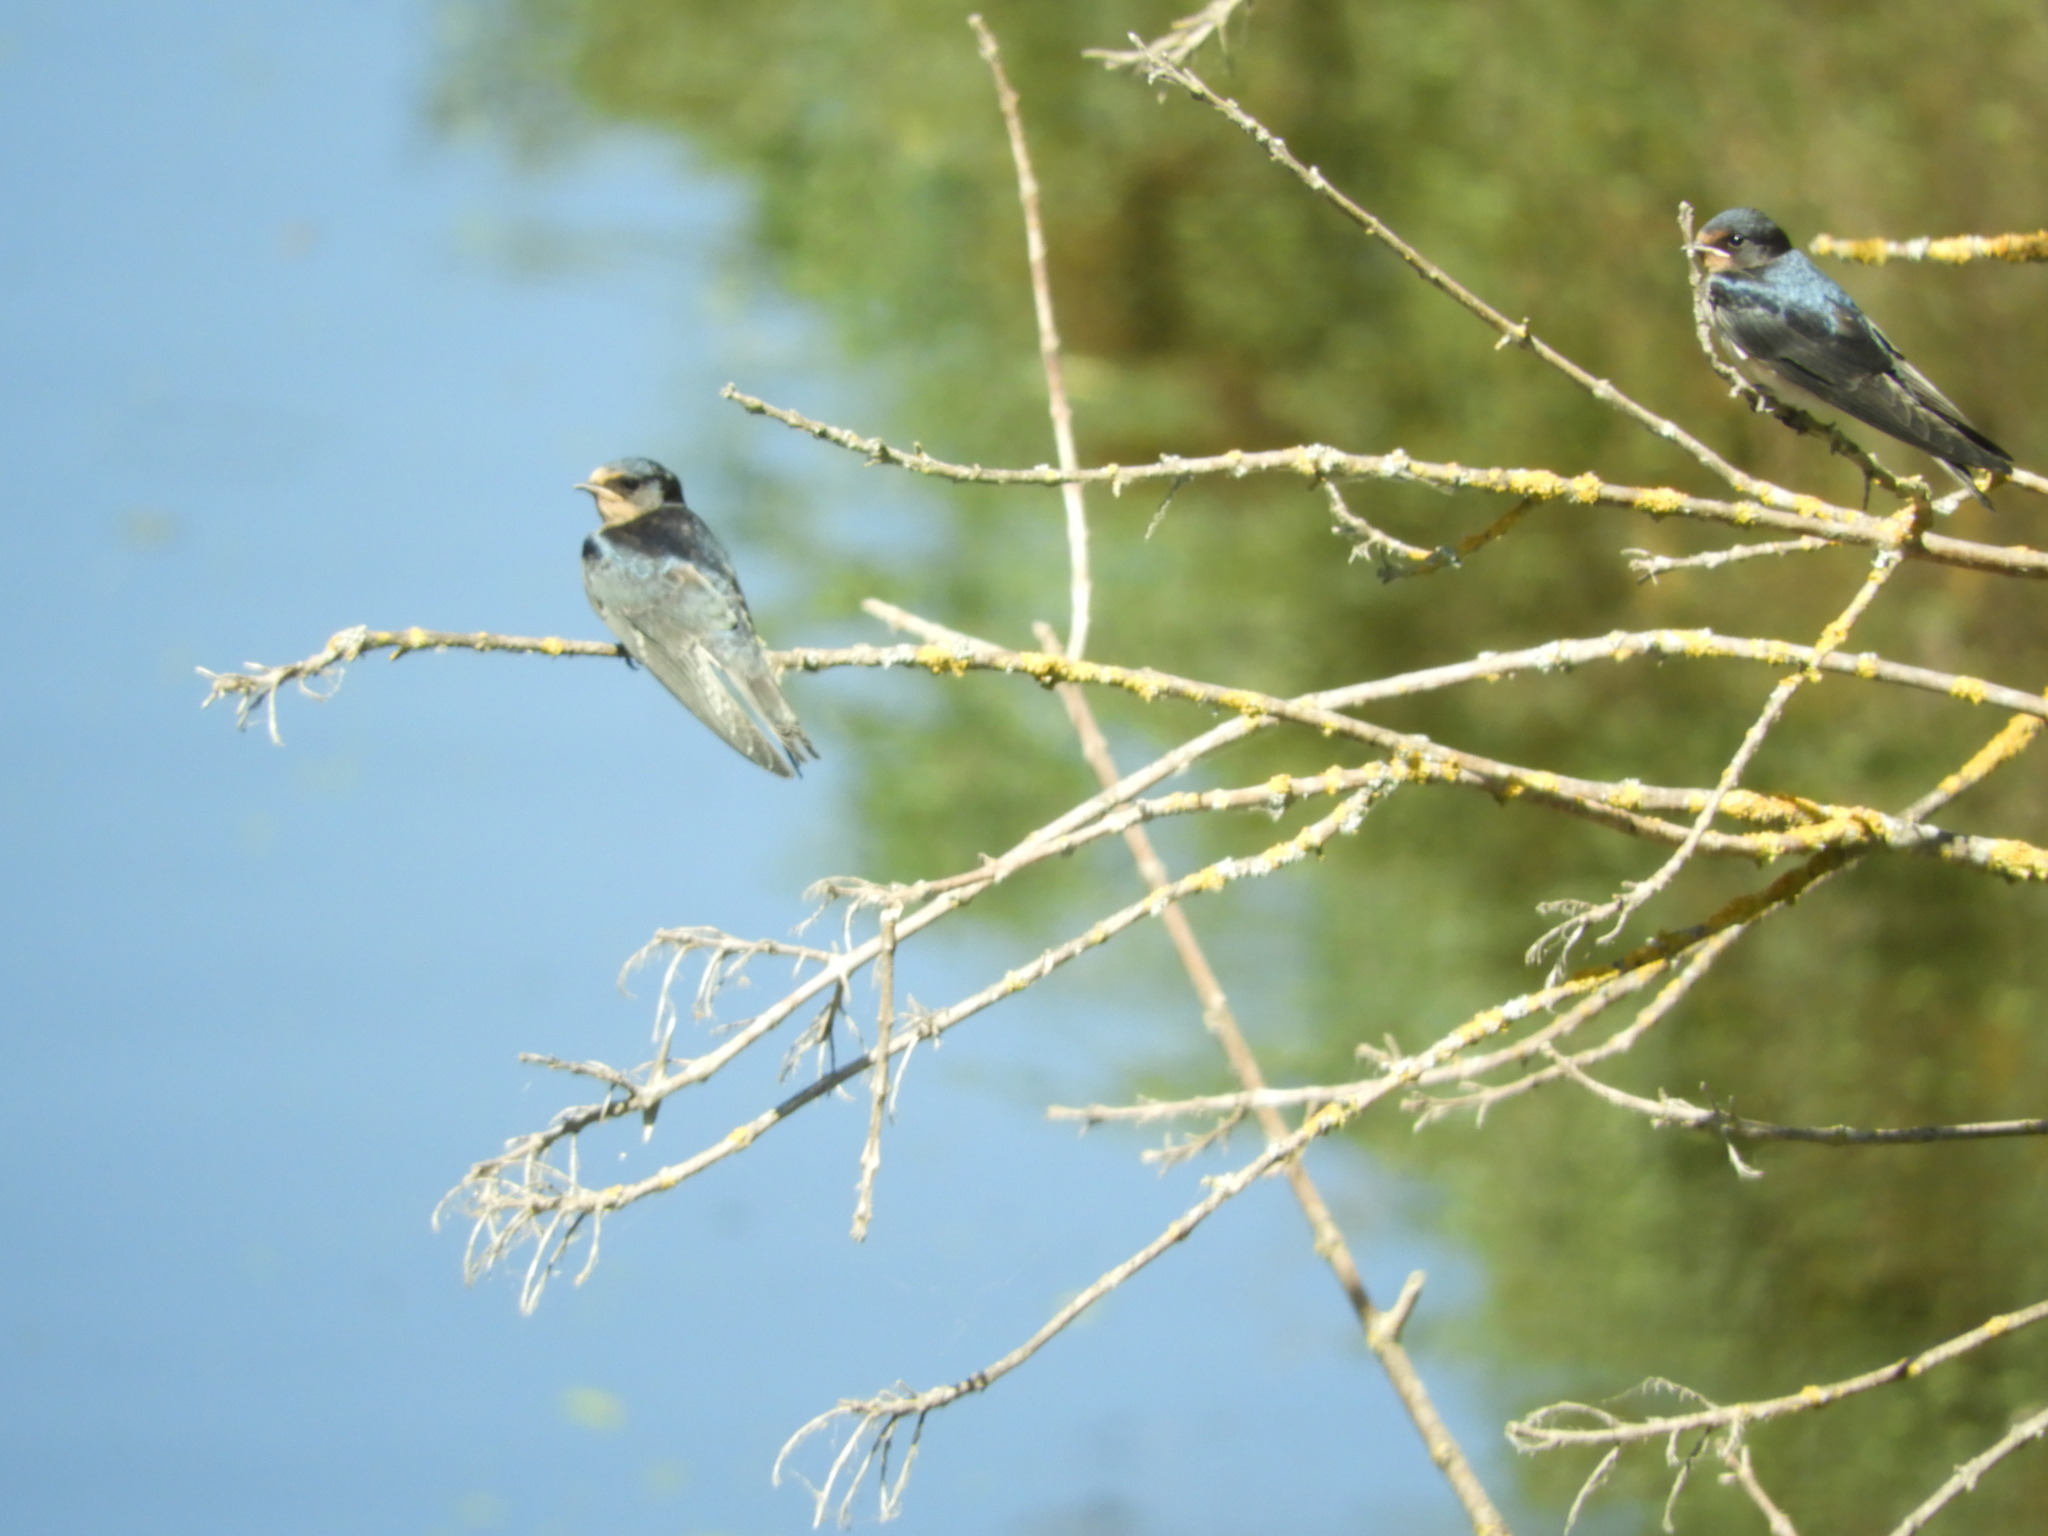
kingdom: Animalia
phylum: Chordata
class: Aves
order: Passeriformes
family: Hirundinidae
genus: Hirundo
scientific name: Hirundo rustica
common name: Barn swallow
